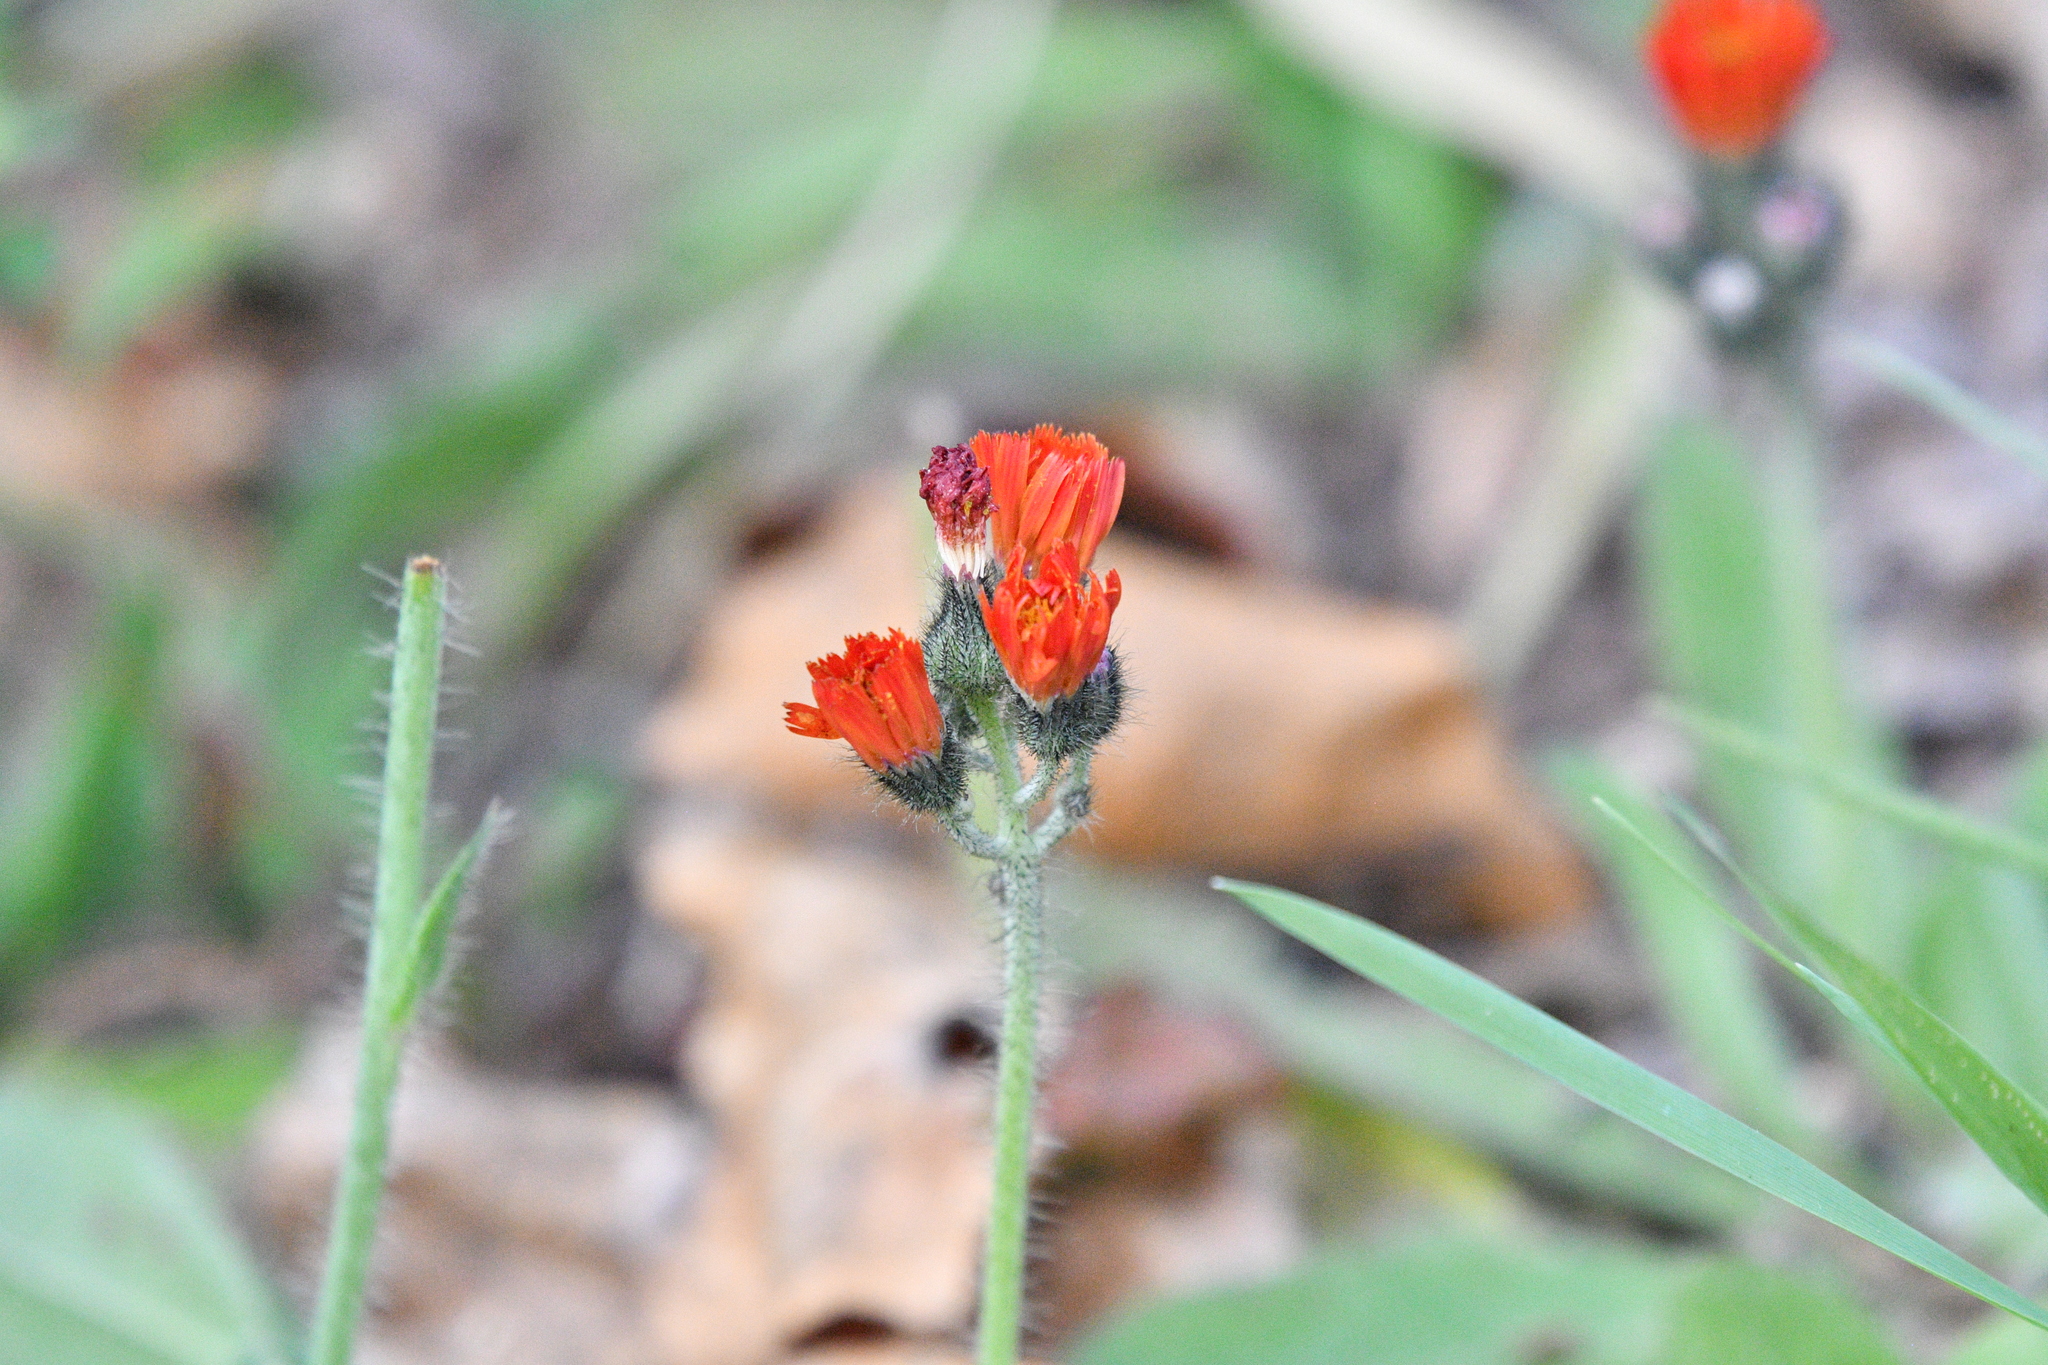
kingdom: Plantae
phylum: Tracheophyta
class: Magnoliopsida
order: Asterales
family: Asteraceae
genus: Pilosella
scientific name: Pilosella aurantiaca
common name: Fox-and-cubs
